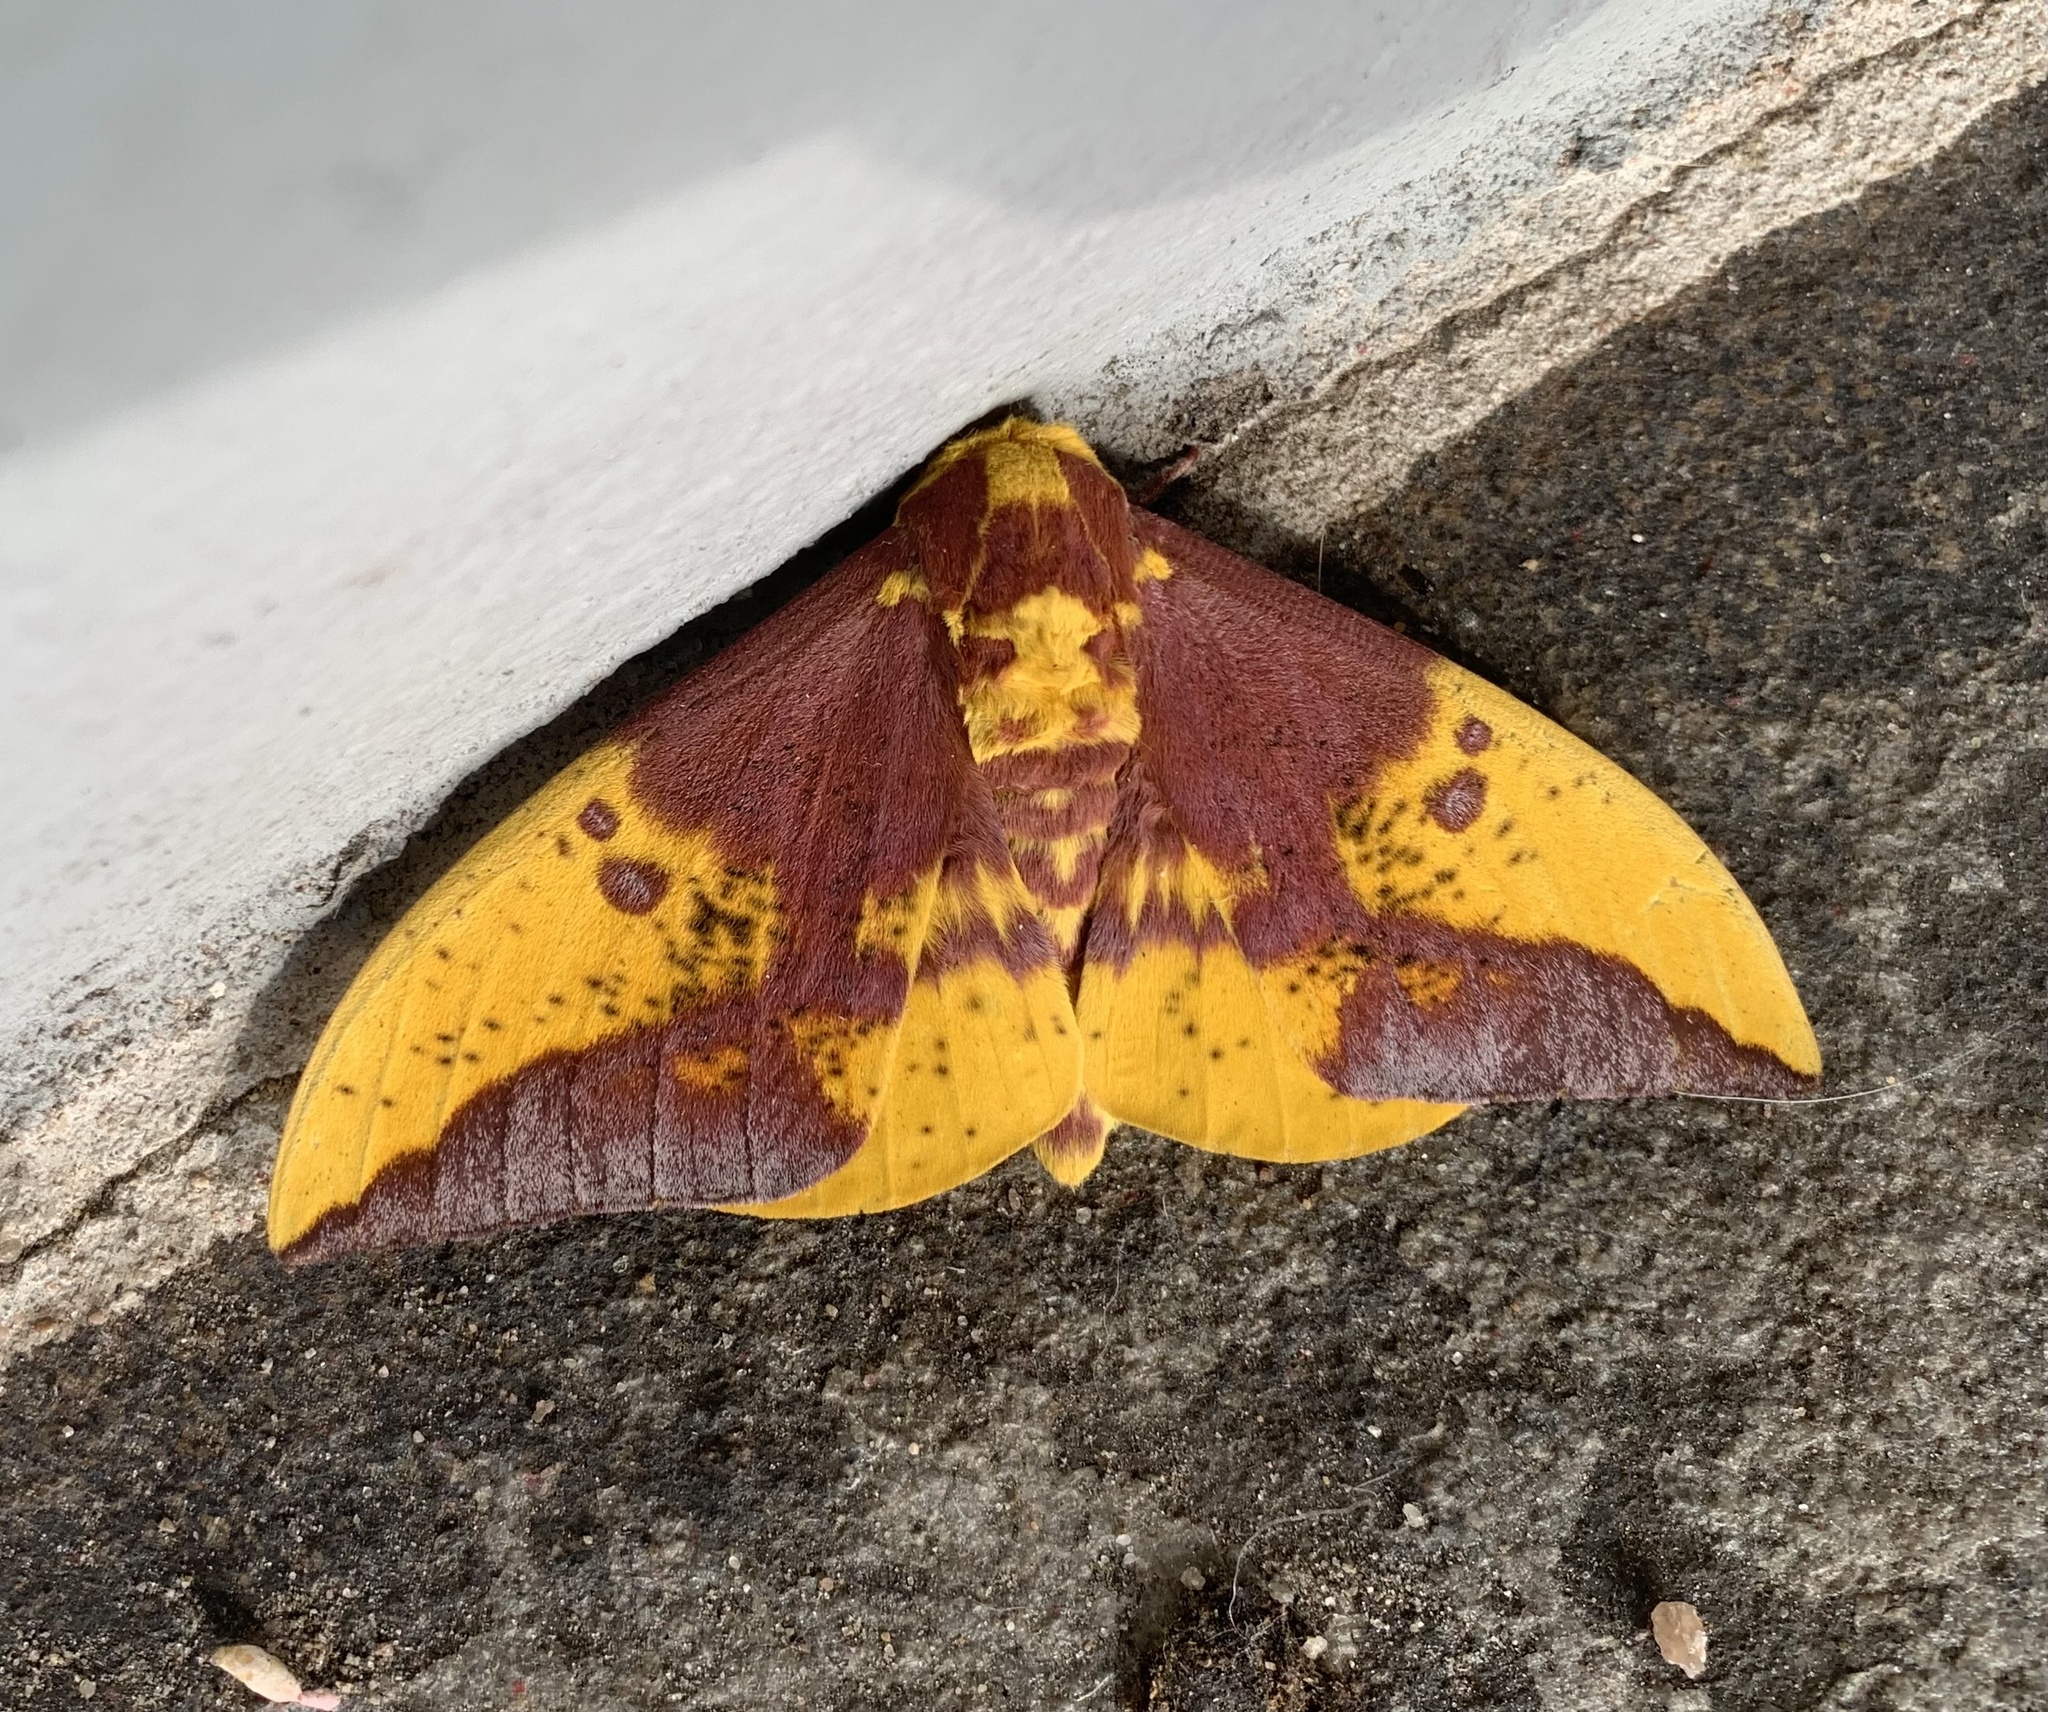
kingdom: Animalia
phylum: Arthropoda
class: Insecta
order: Lepidoptera
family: Saturniidae
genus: Eacles
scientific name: Eacles imperialis
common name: Imperial moth
